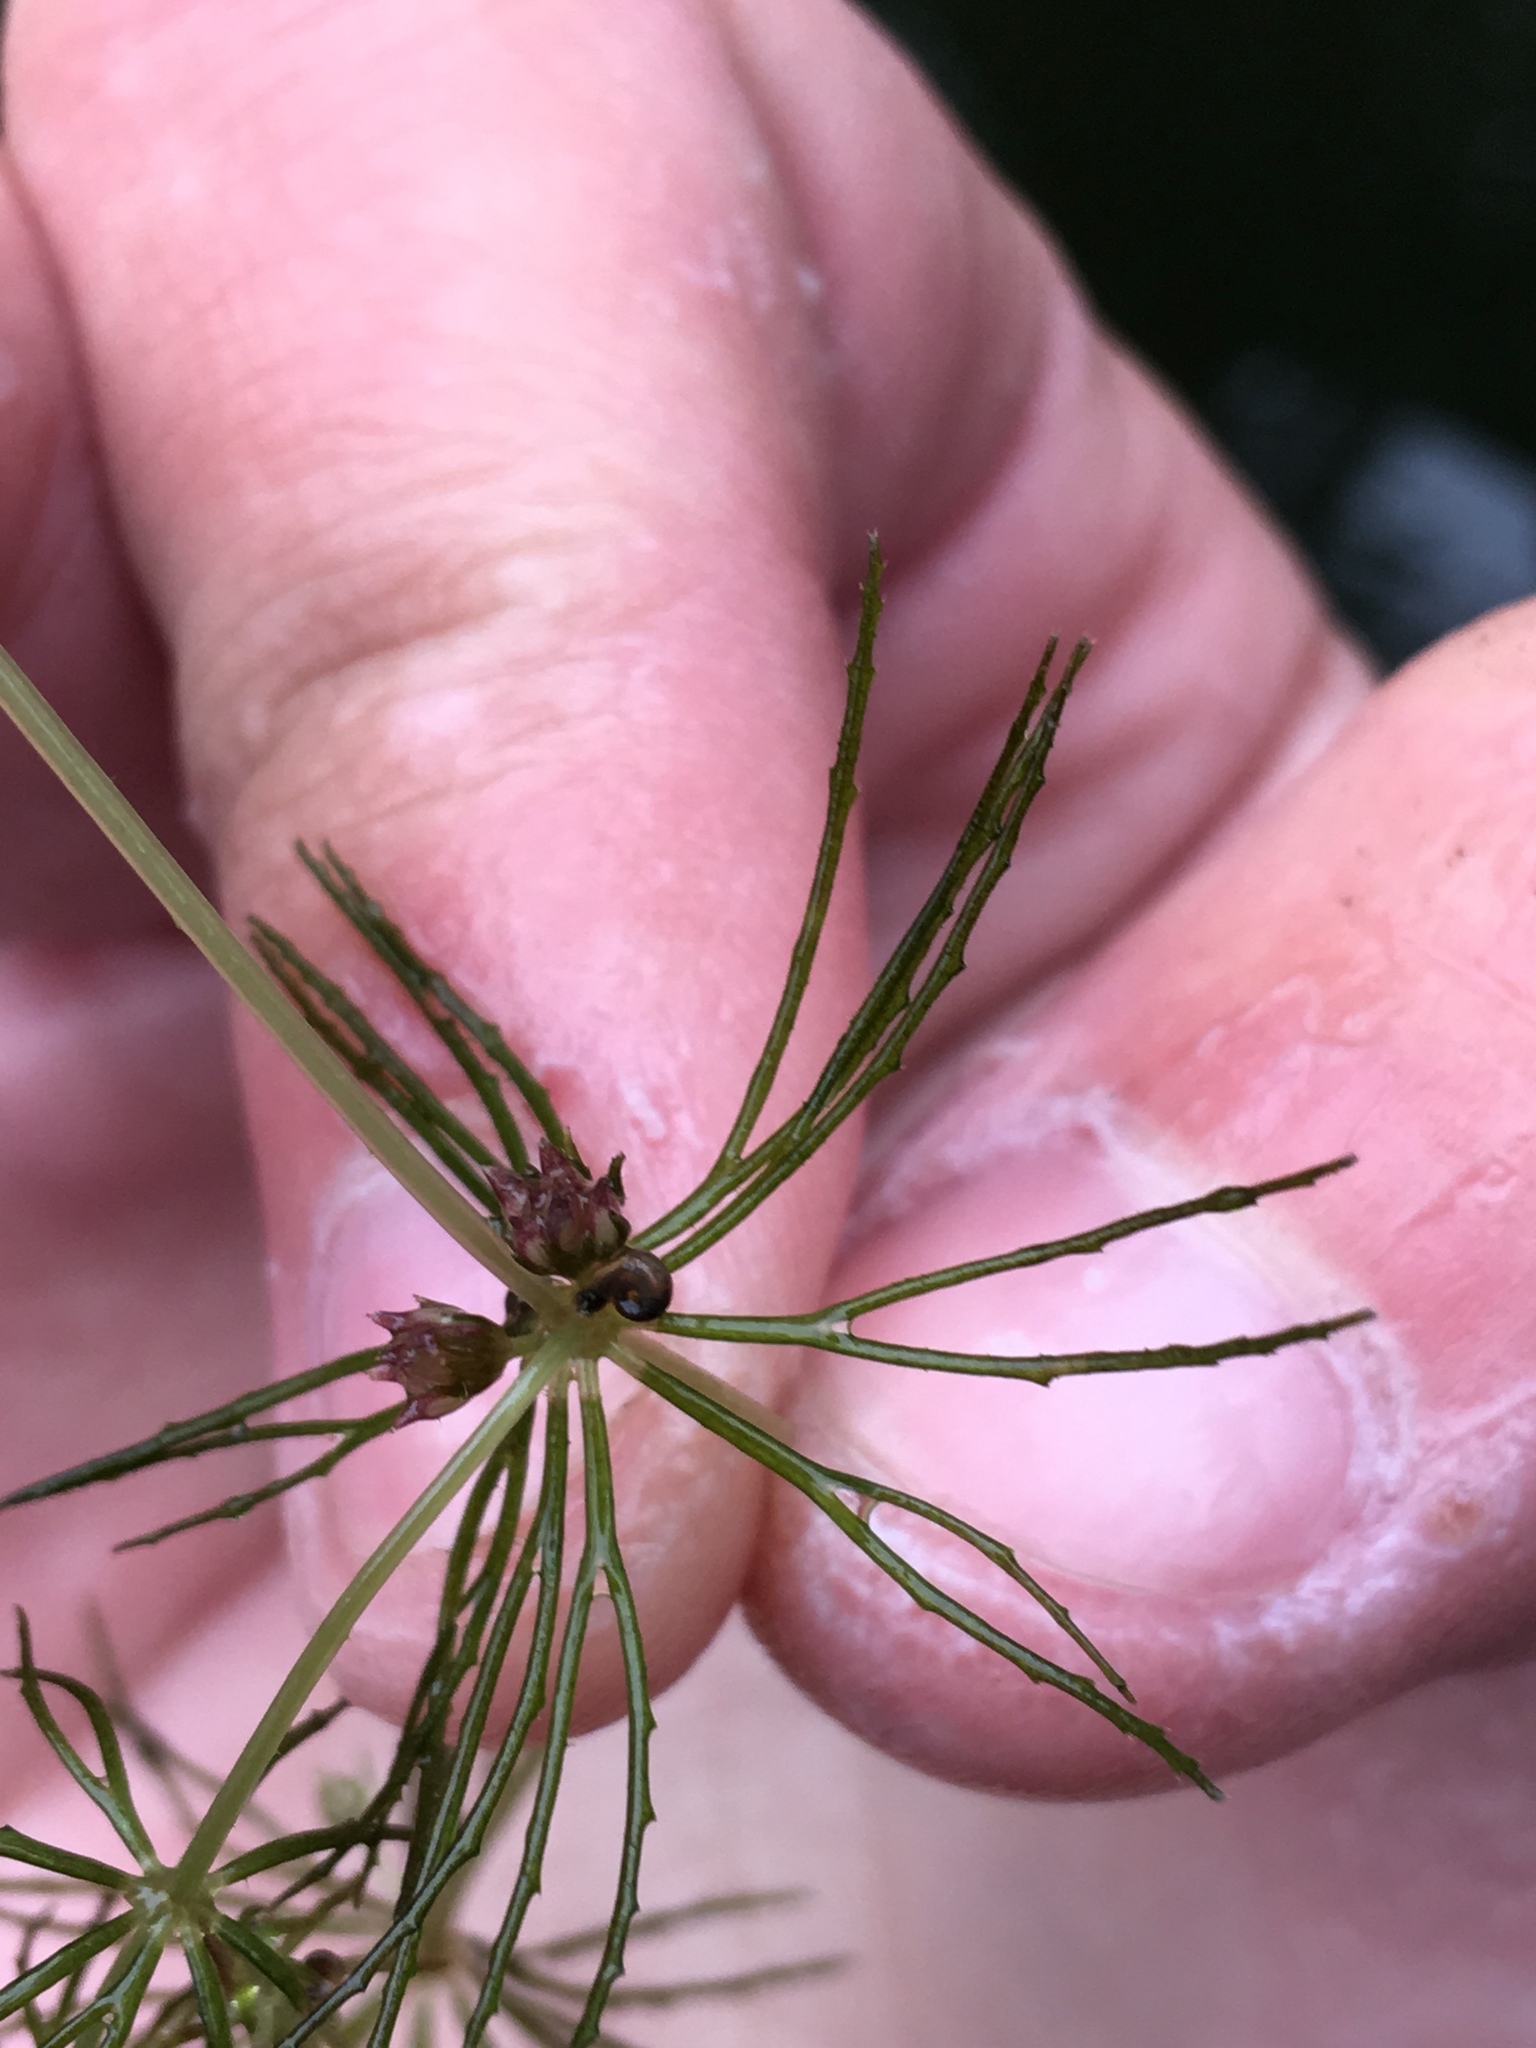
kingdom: Plantae
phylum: Tracheophyta
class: Magnoliopsida
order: Ceratophyllales
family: Ceratophyllaceae
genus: Ceratophyllum
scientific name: Ceratophyllum demersum
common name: Rigid hornwort
